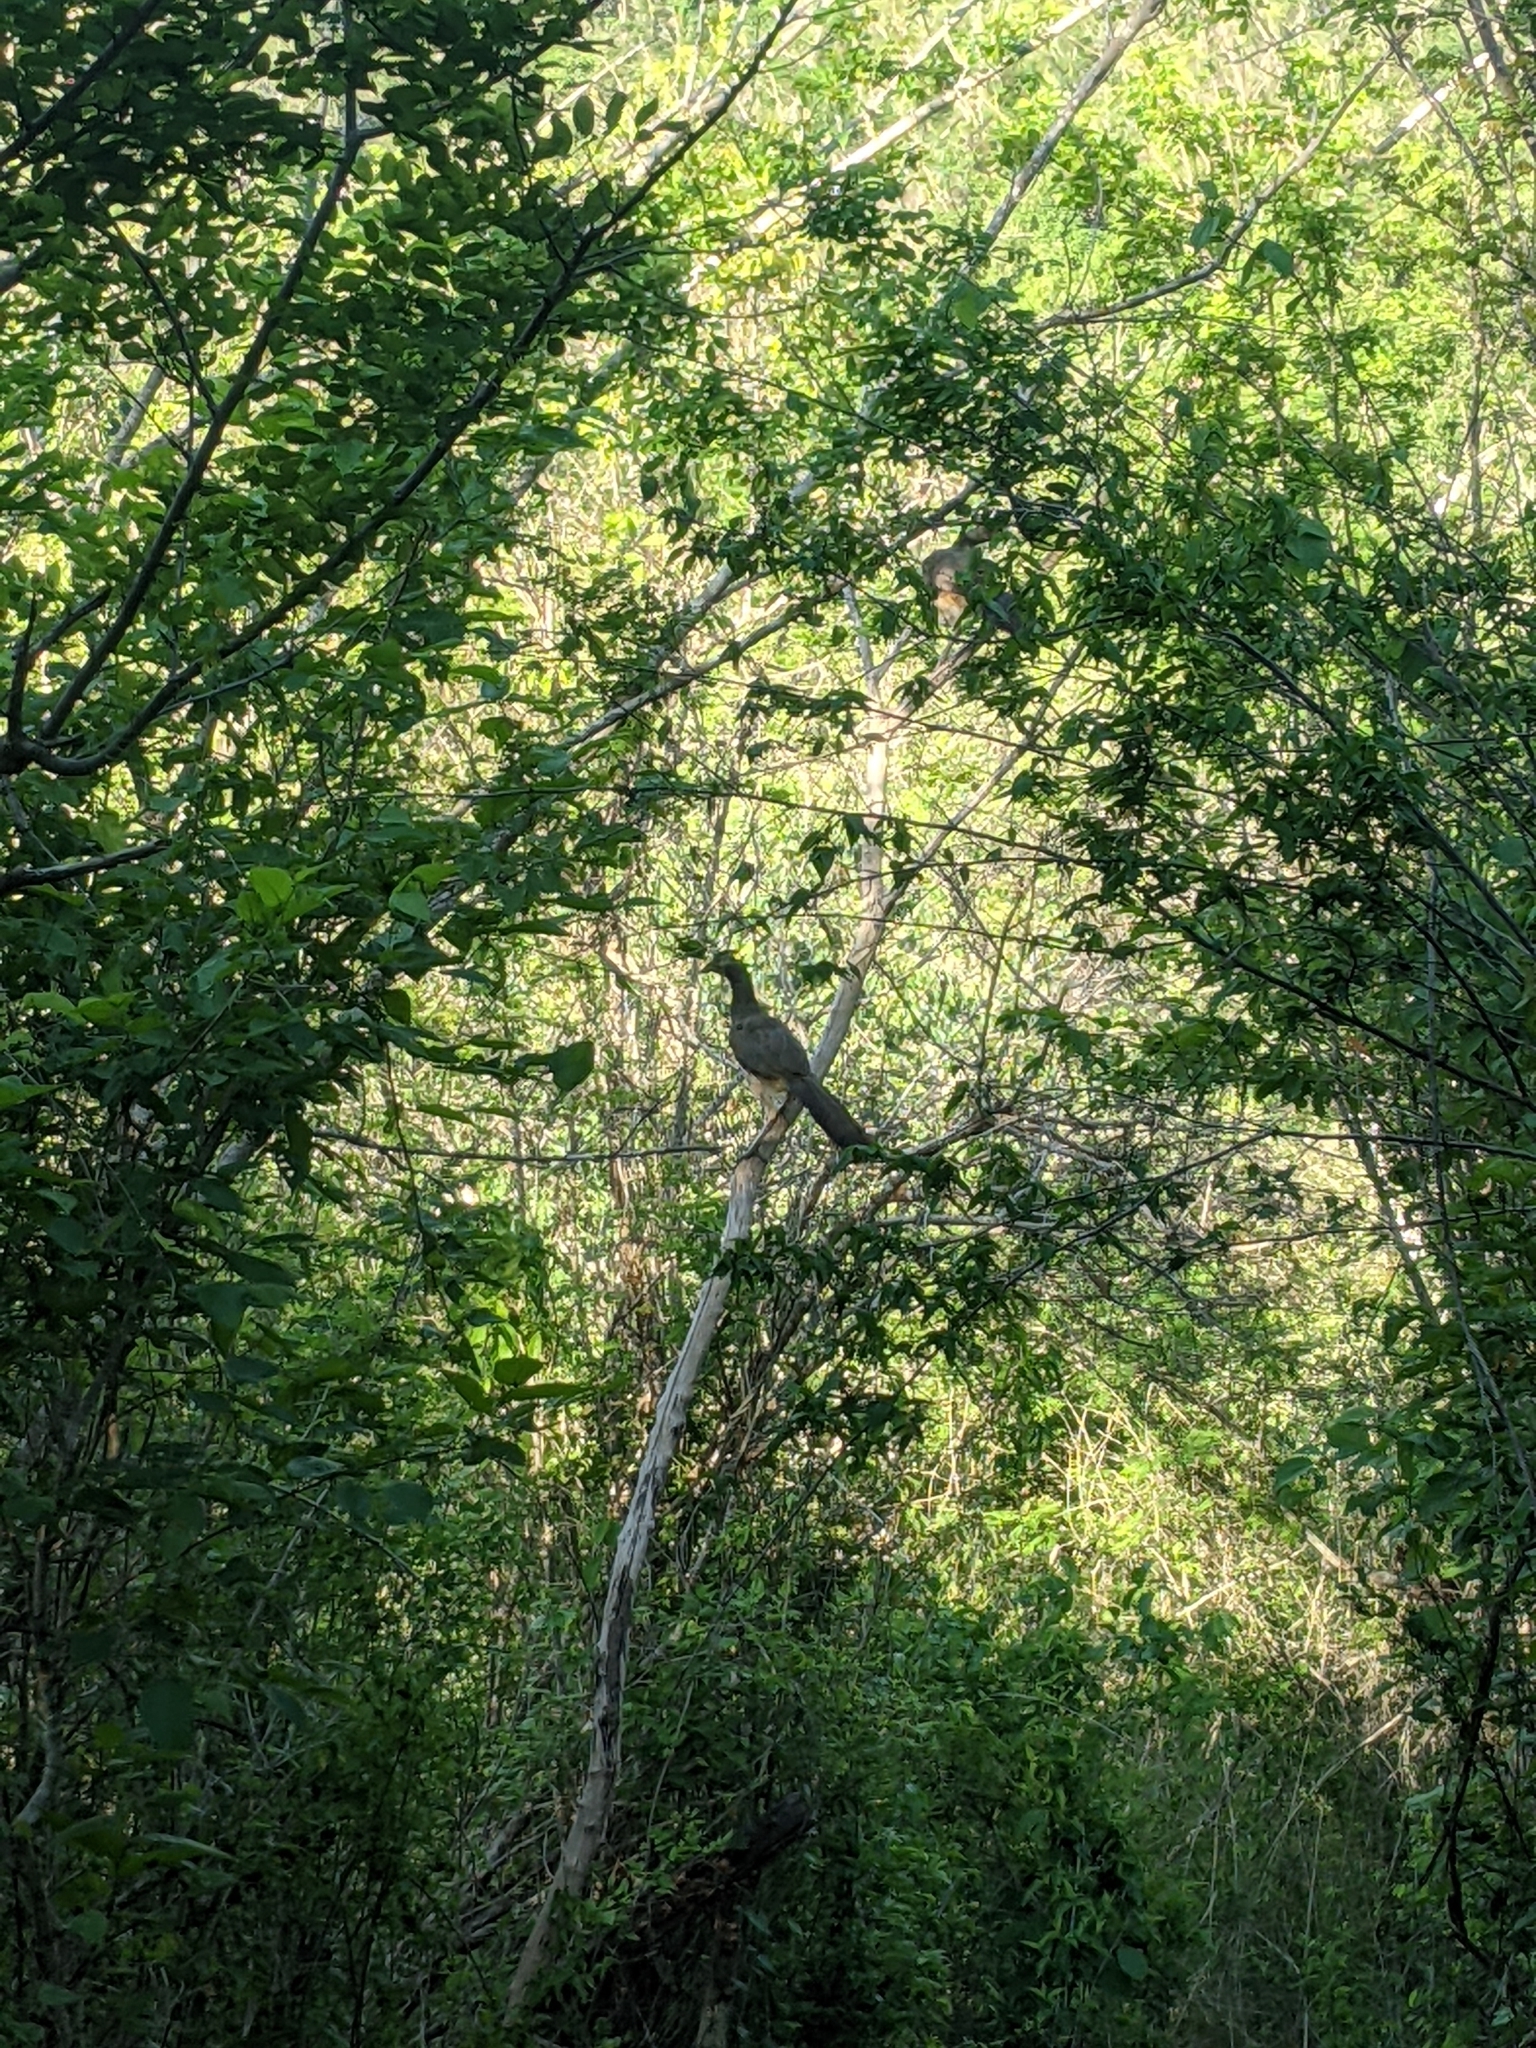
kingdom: Animalia
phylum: Chordata
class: Aves
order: Galliformes
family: Cracidae
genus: Ortalis
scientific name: Ortalis poliocephala
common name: West mexican chachalaca
